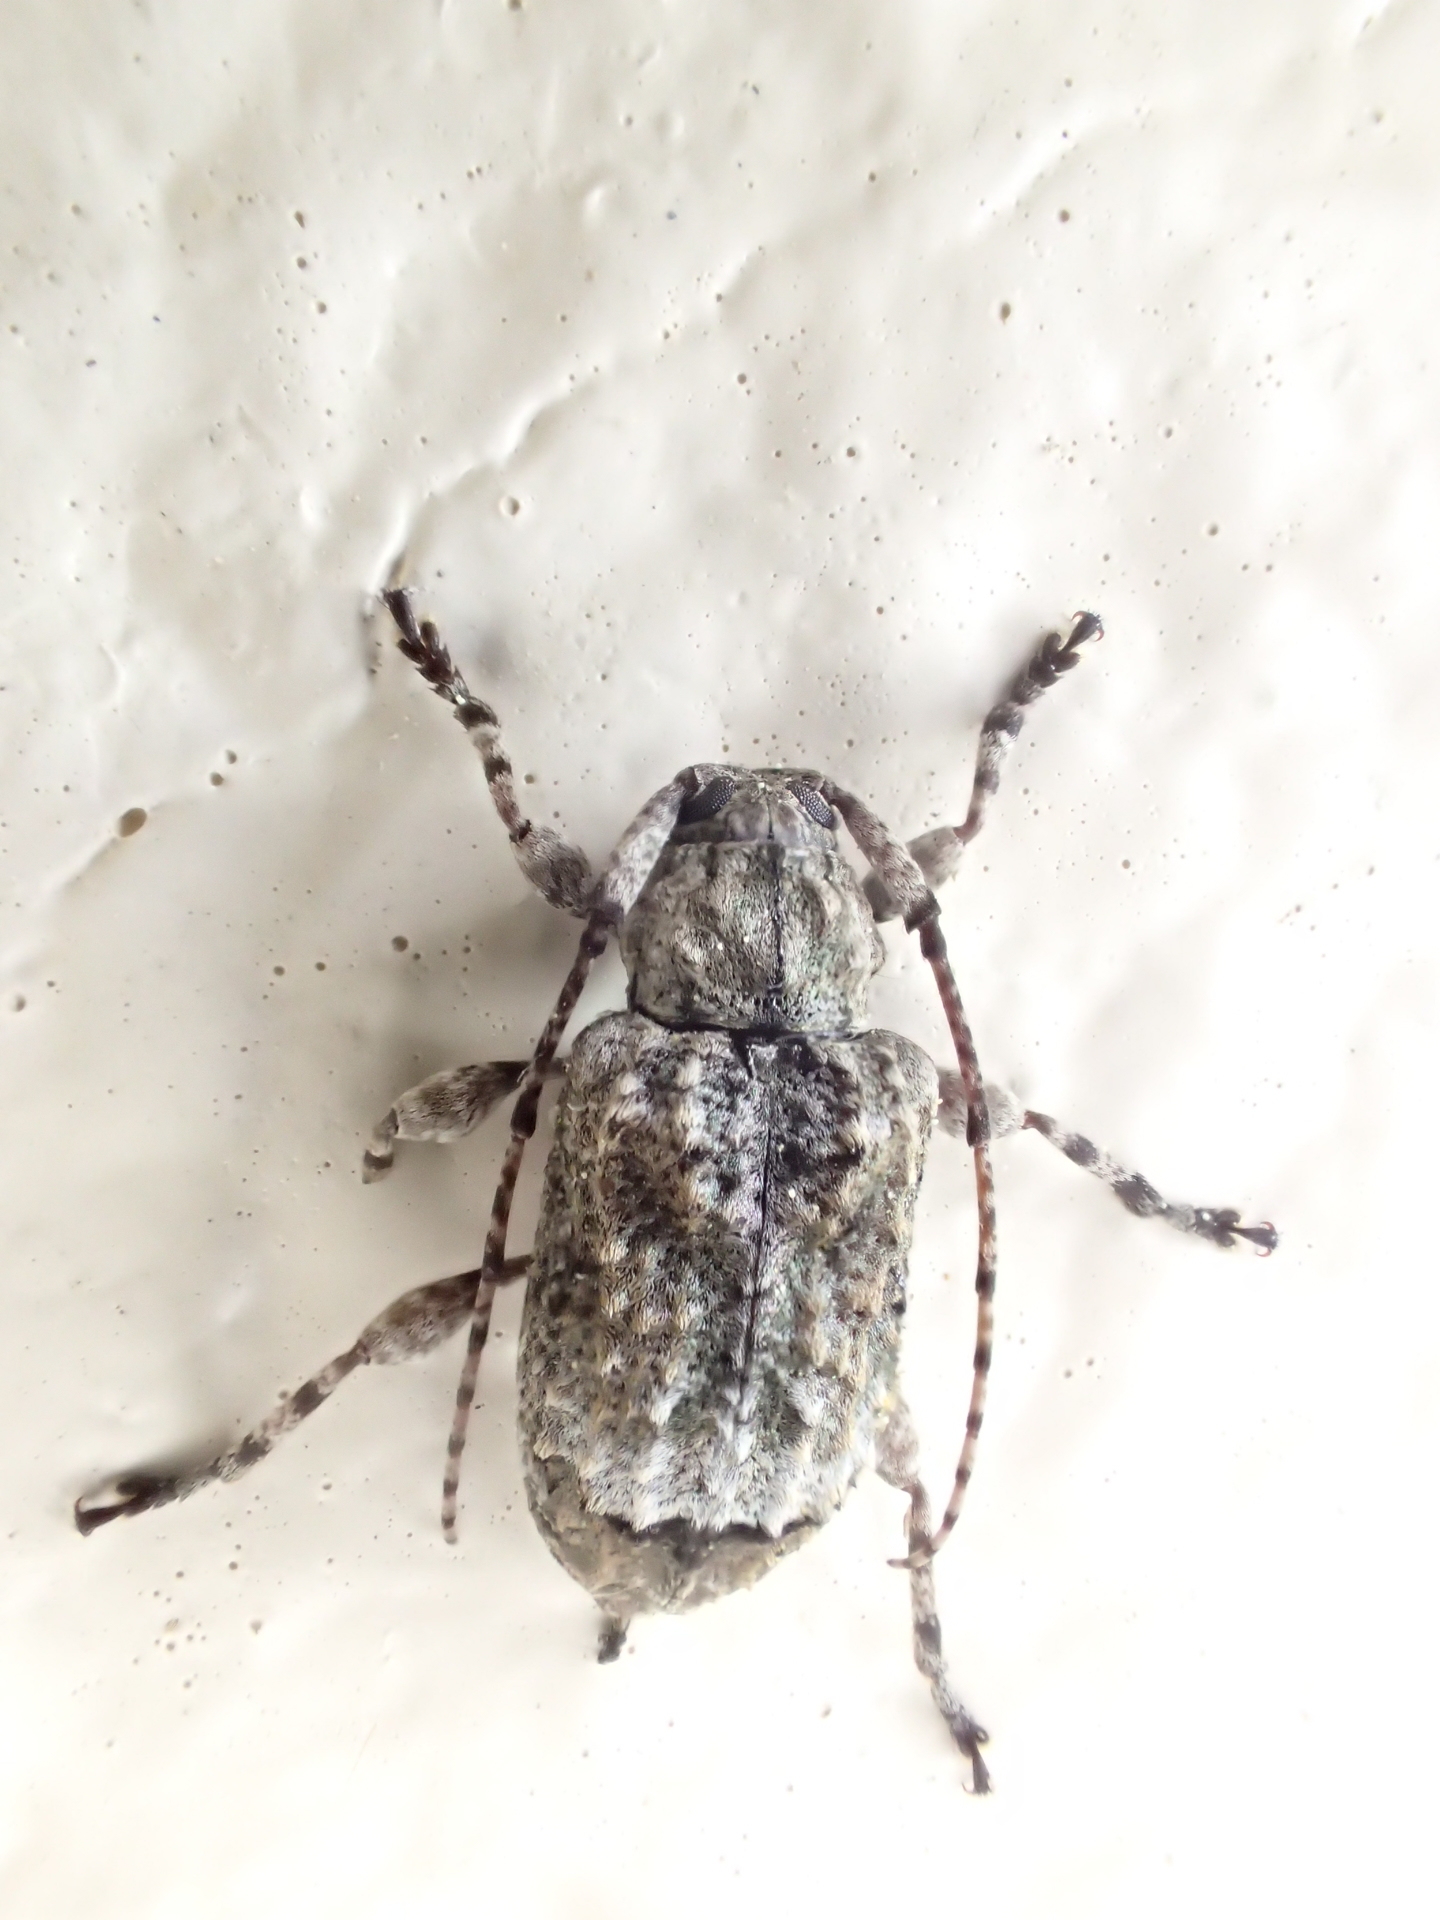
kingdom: Animalia
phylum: Arthropoda
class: Insecta
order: Coleoptera
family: Cerambycidae
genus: Leptostylus
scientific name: Leptostylus transversus
